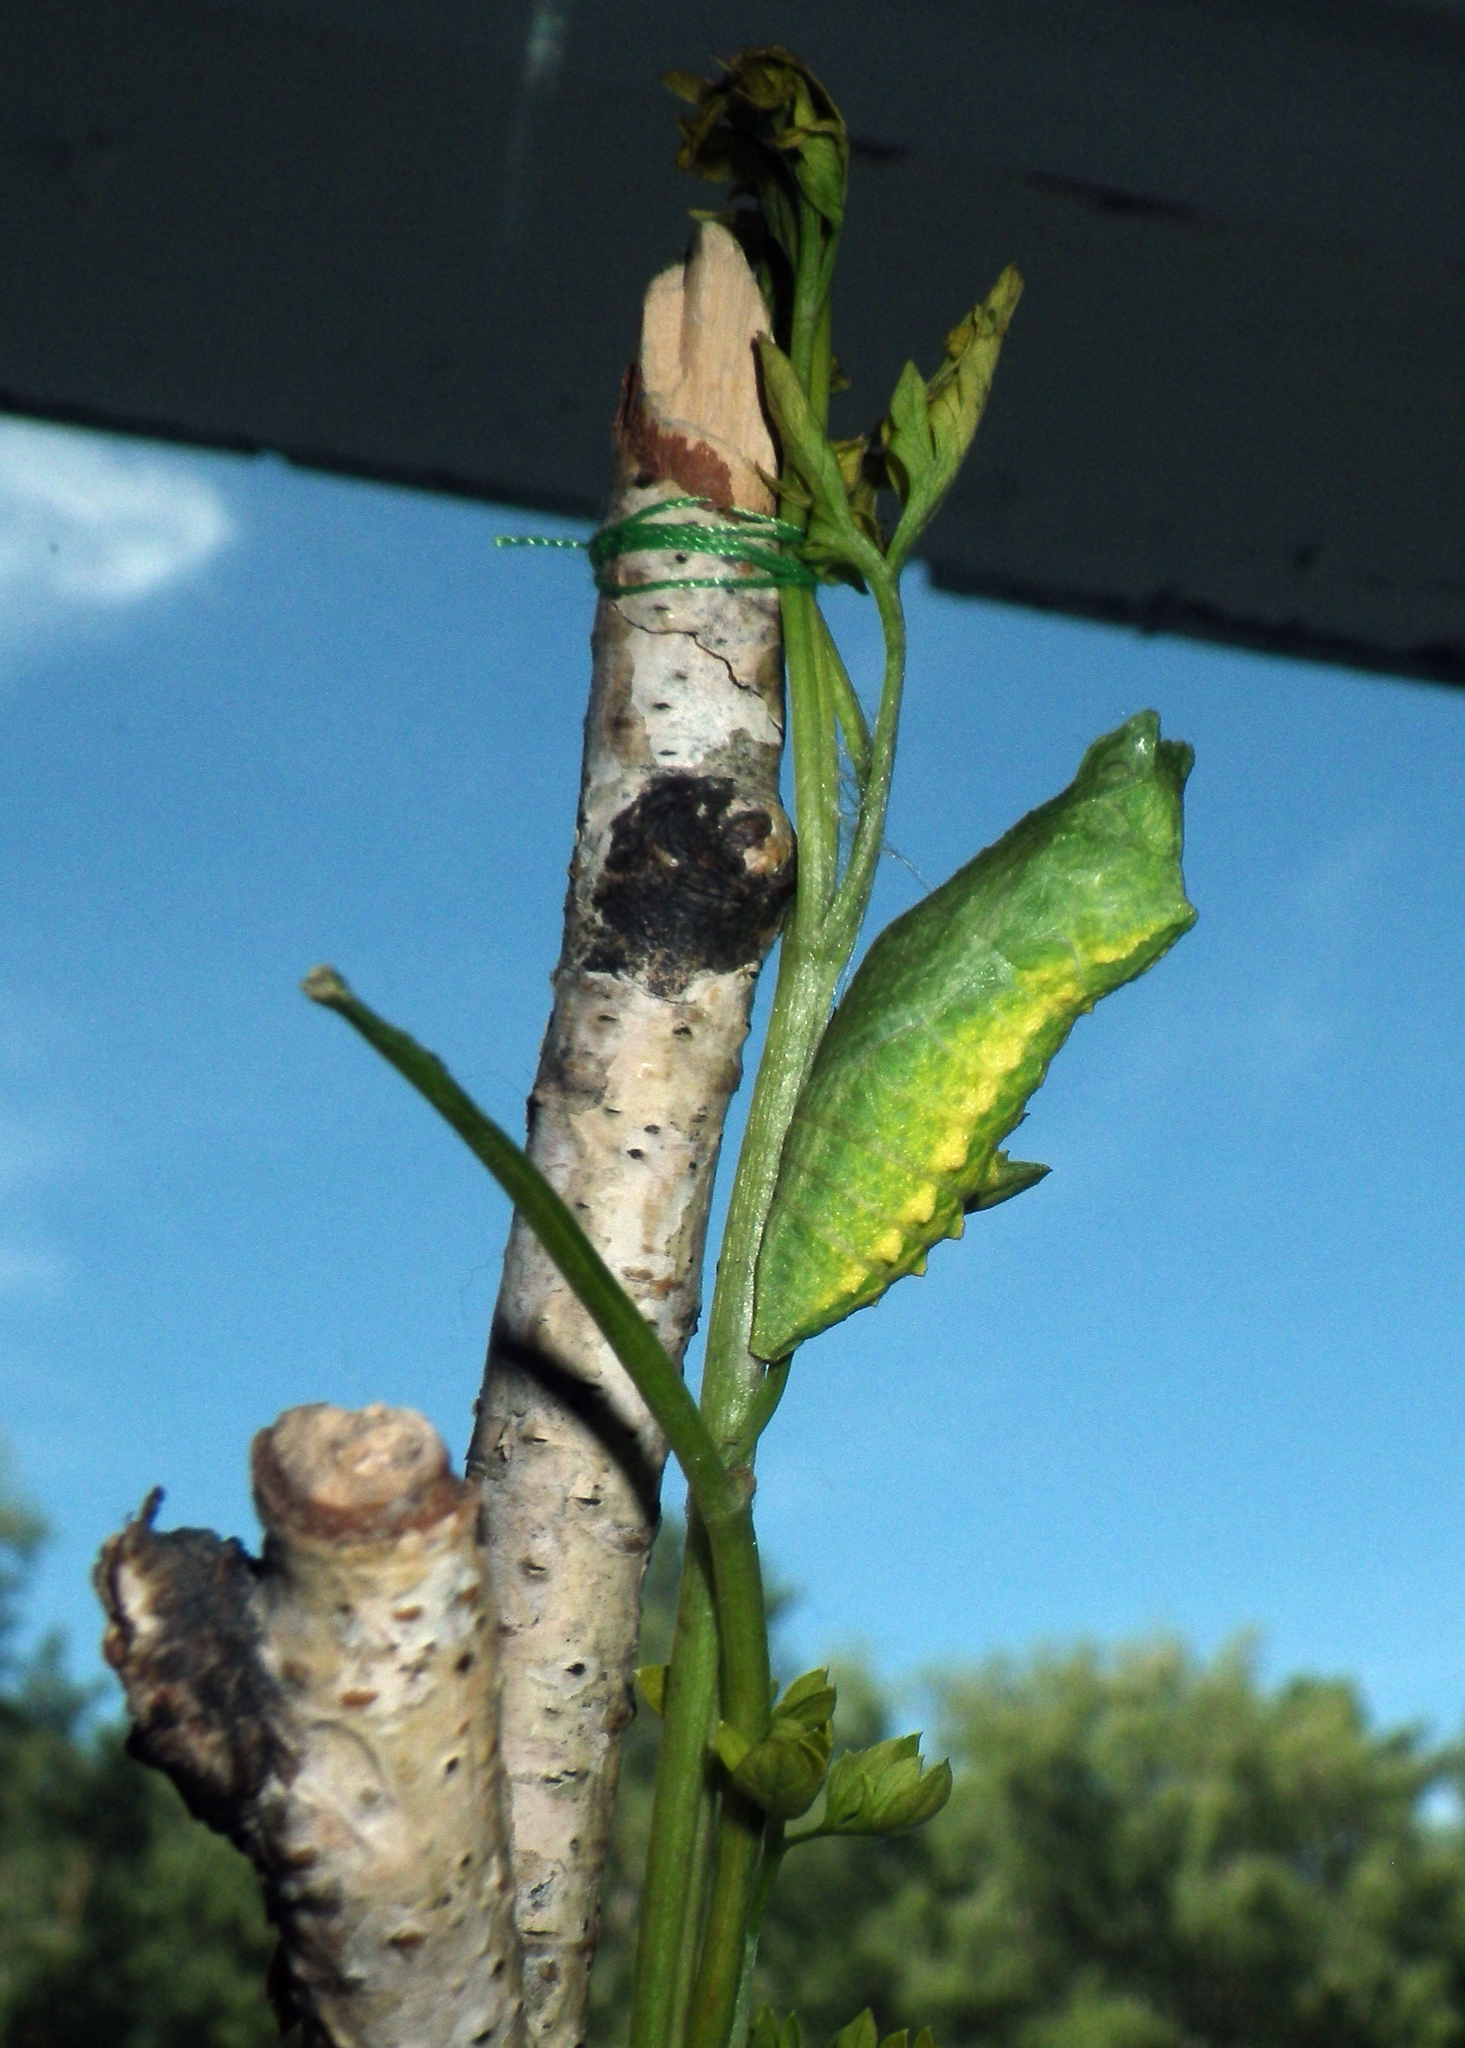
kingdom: Animalia
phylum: Arthropoda
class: Insecta
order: Lepidoptera
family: Papilionidae
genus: Papilio
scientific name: Papilio machaon
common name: Swallowtail
